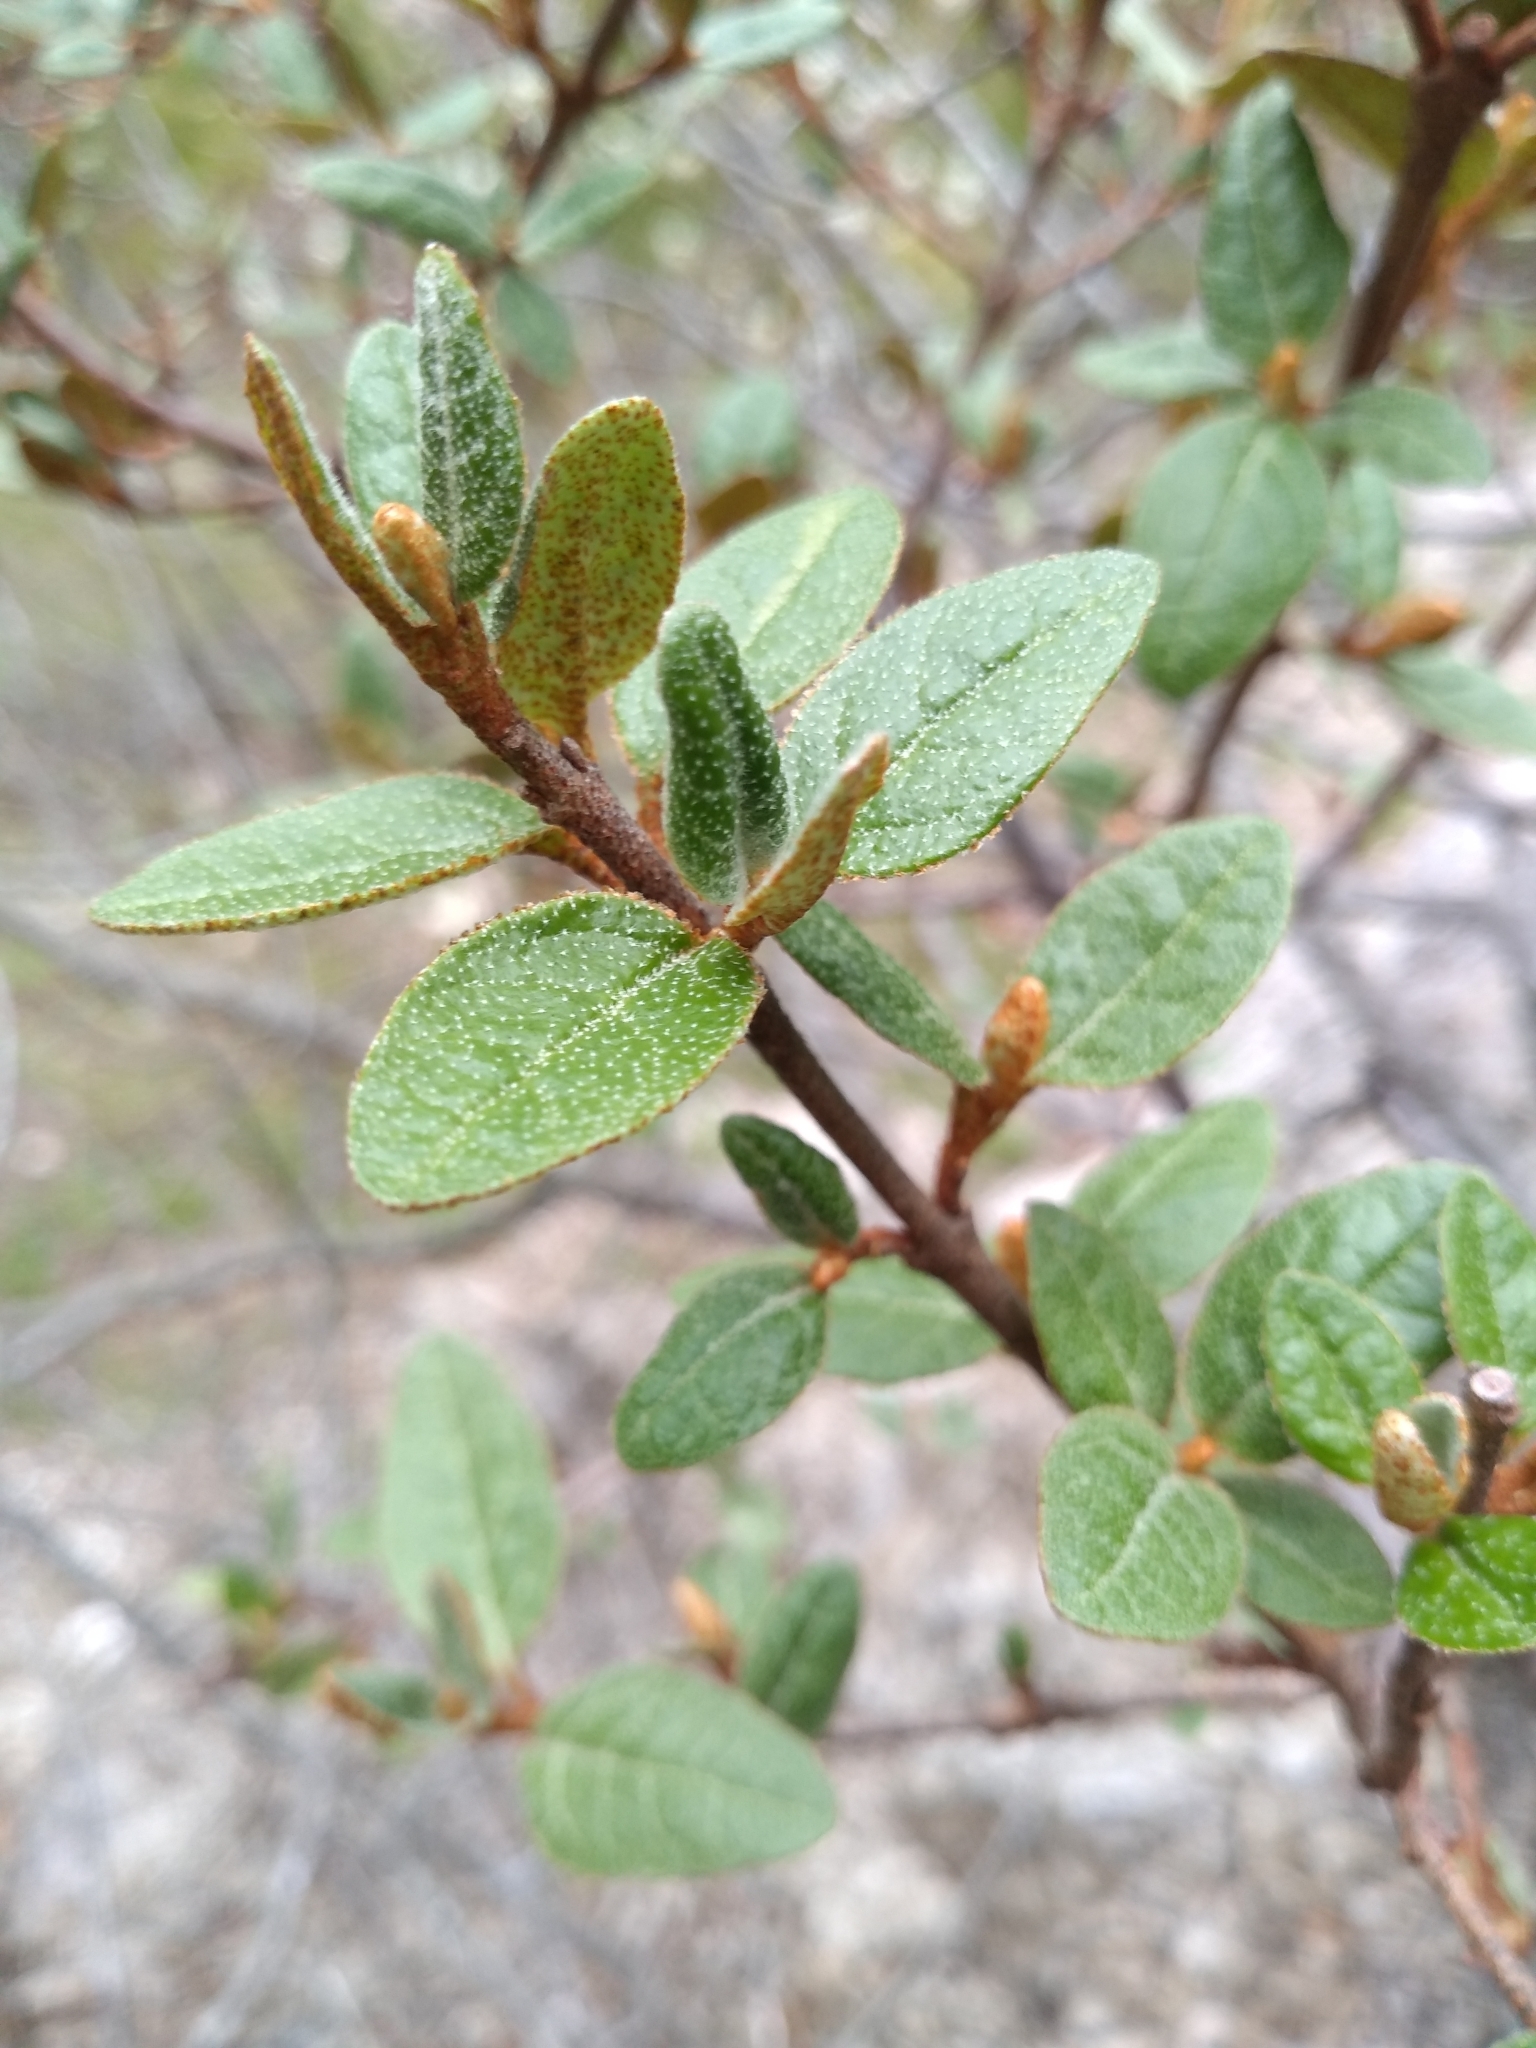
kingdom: Plantae
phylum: Tracheophyta
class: Magnoliopsida
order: Rosales
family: Elaeagnaceae
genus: Shepherdia
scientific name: Shepherdia canadensis
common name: Soapberry
